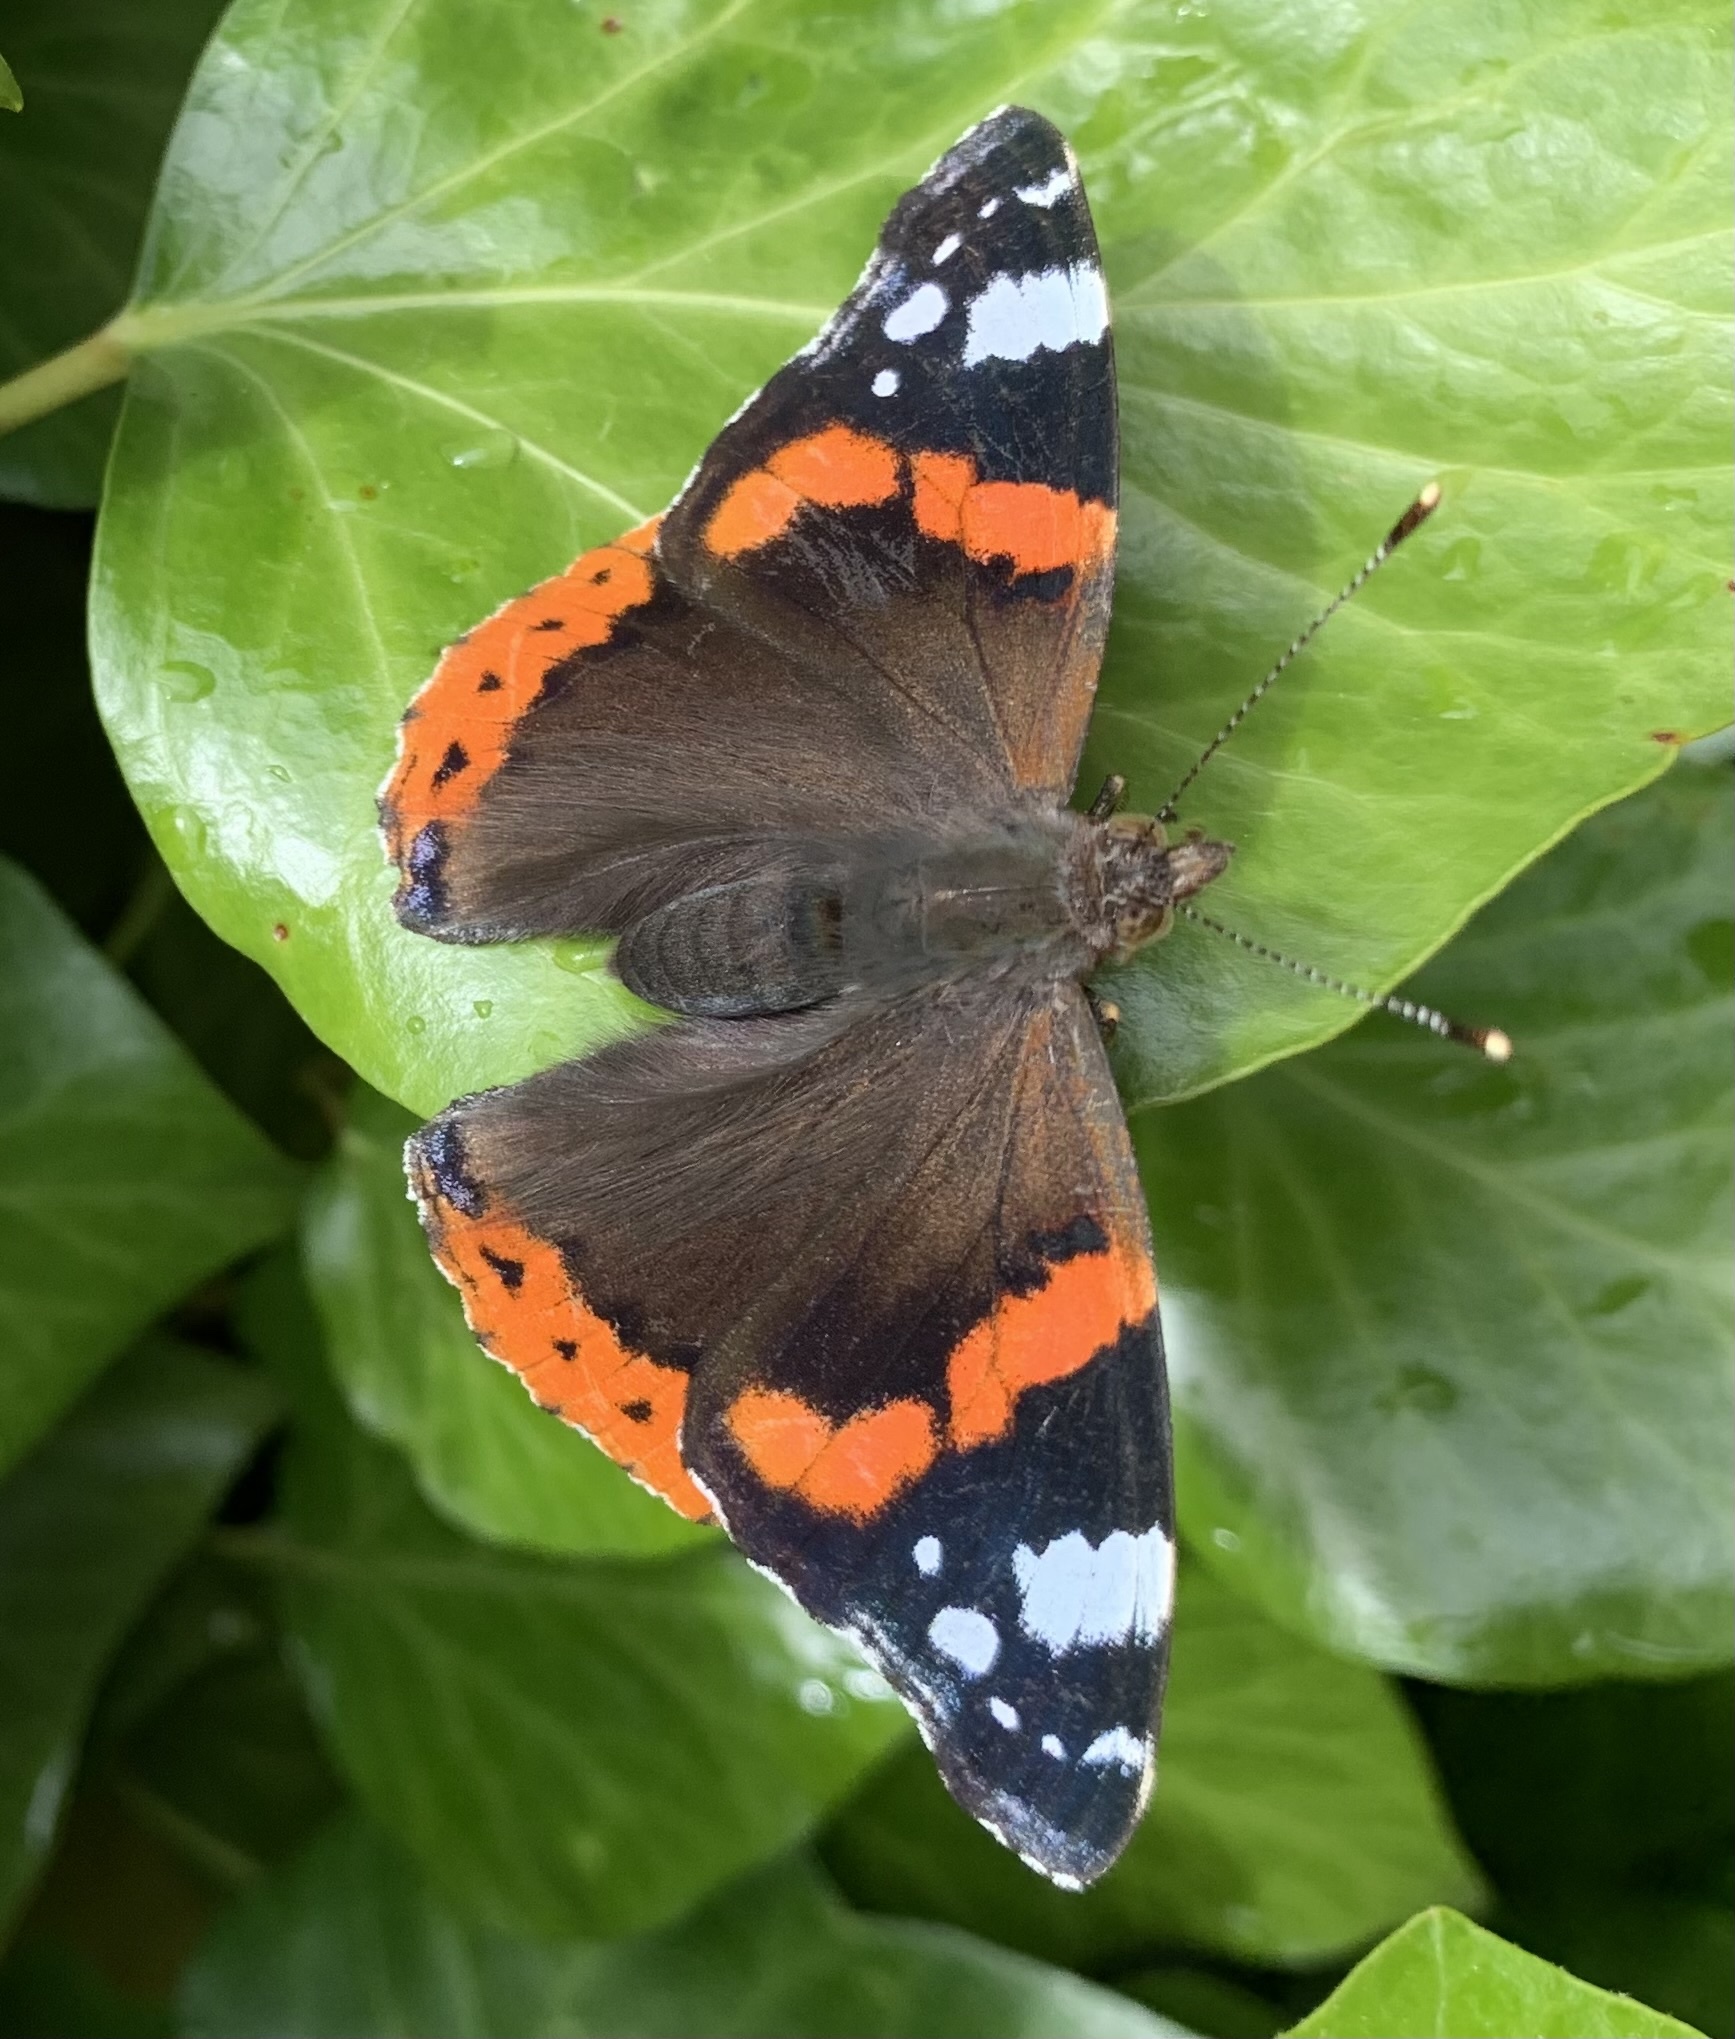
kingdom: Animalia
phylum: Arthropoda
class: Insecta
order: Lepidoptera
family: Nymphalidae
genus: Vanessa
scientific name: Vanessa atalanta
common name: Red admiral
